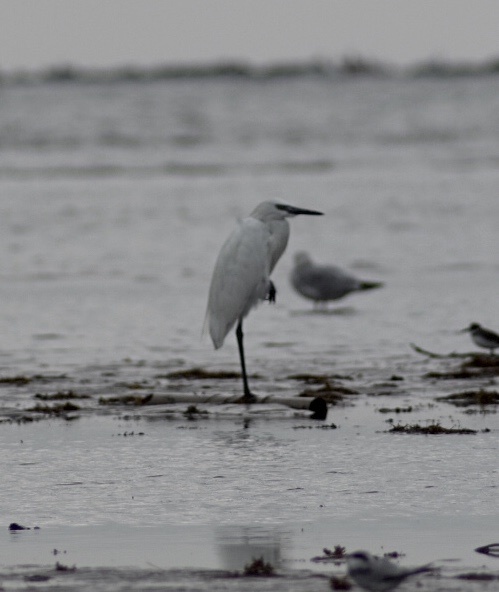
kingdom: Animalia
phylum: Chordata
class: Aves
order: Pelecaniformes
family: Ardeidae
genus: Egretta
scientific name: Egretta rufescens
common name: Reddish egret
